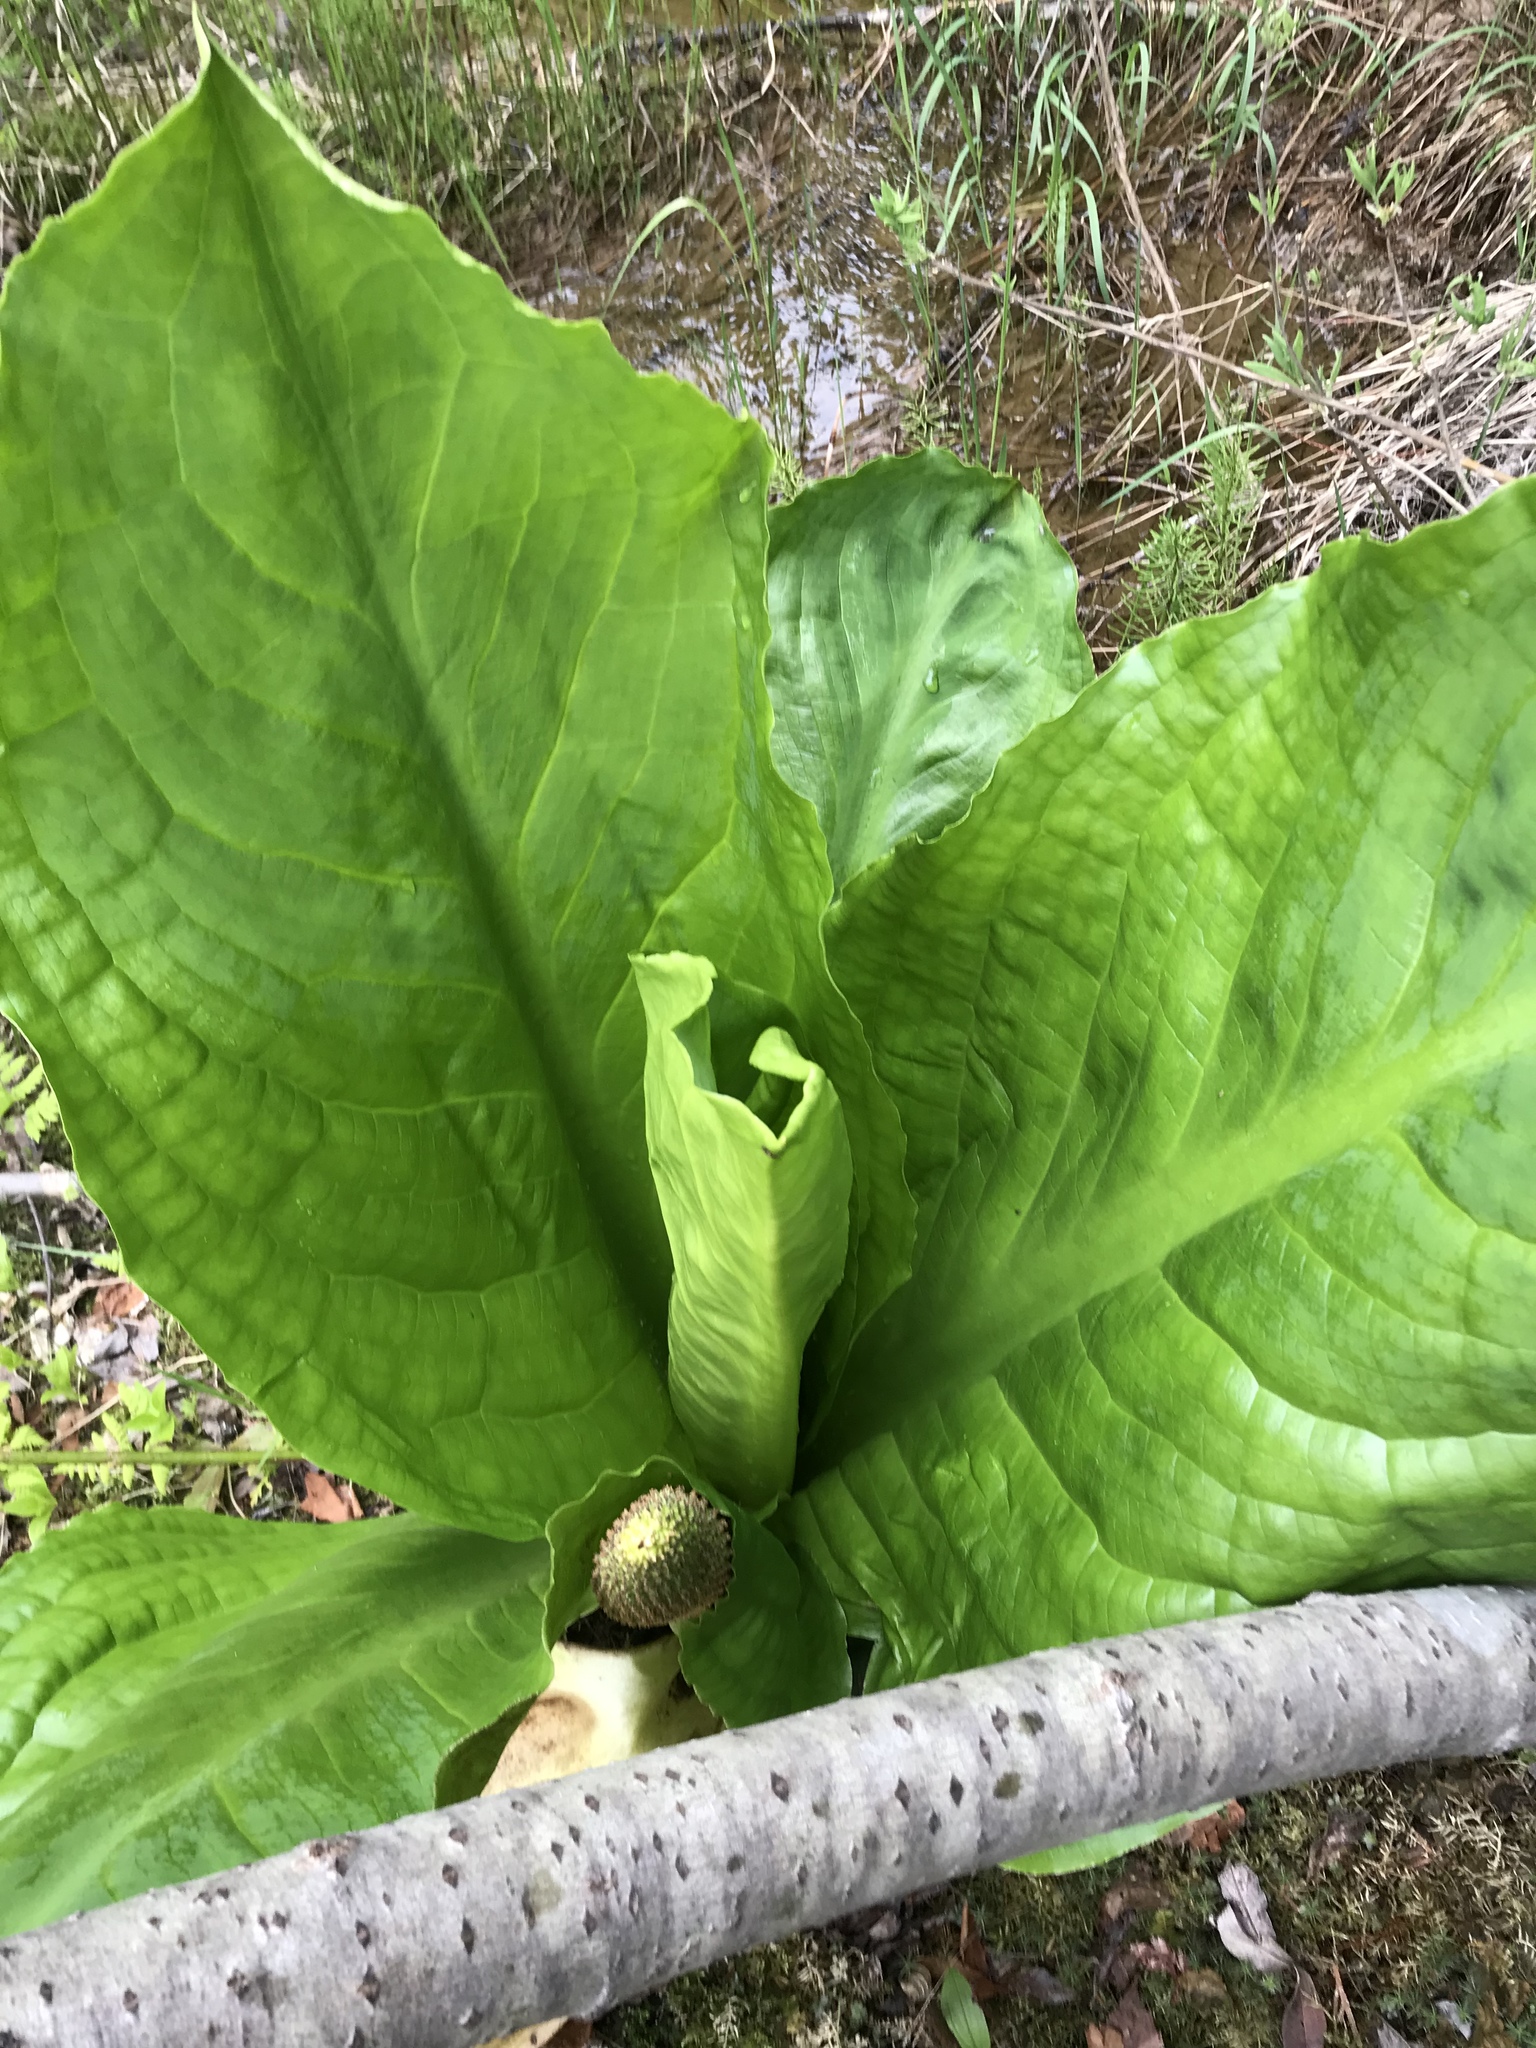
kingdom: Plantae
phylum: Tracheophyta
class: Liliopsida
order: Alismatales
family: Araceae
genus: Lysichiton
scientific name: Lysichiton americanus
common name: American skunk cabbage
